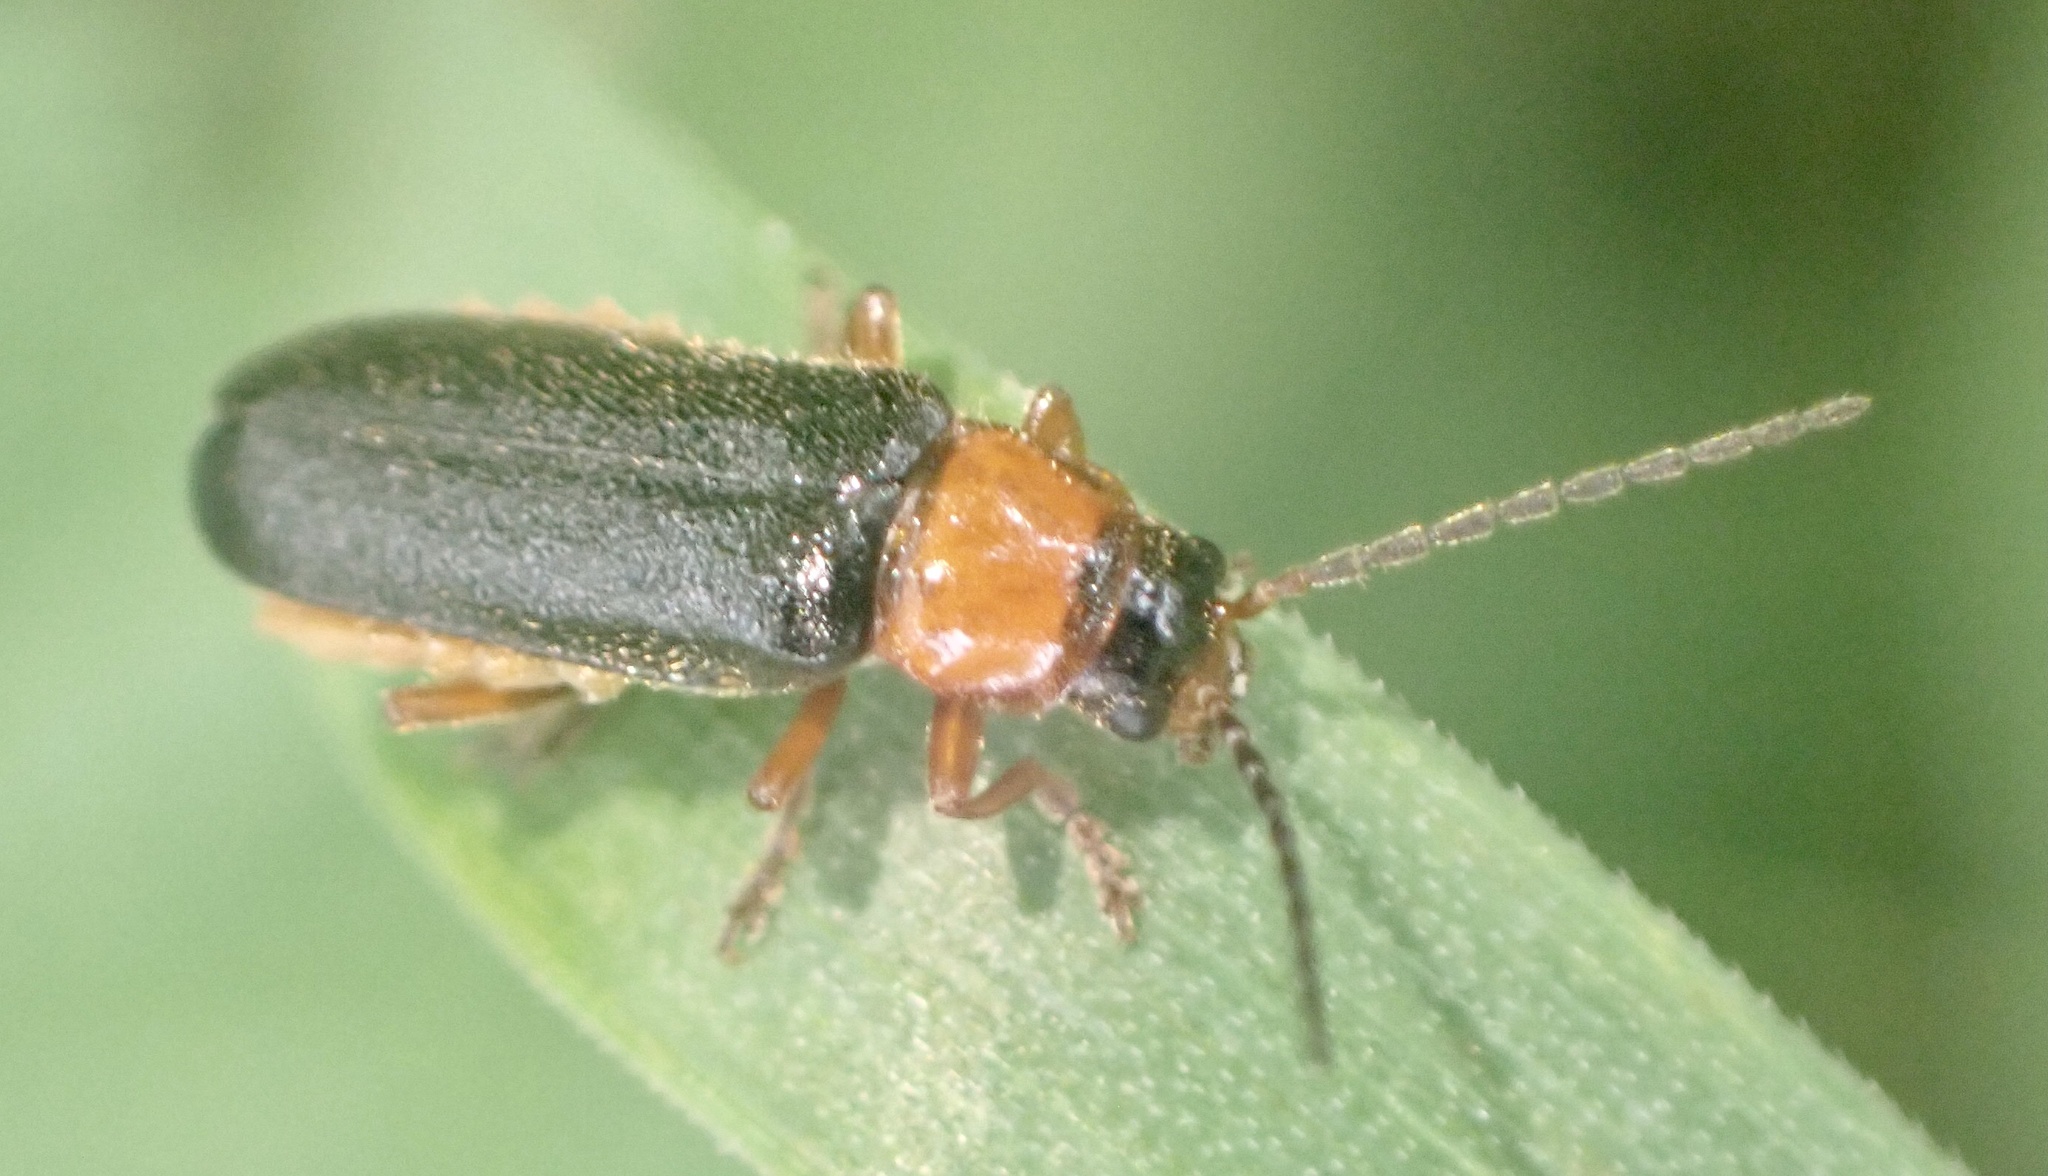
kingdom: Animalia
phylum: Arthropoda
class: Insecta
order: Coleoptera
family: Cantharidae
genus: Cantharis
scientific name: Cantharis flavilabris
